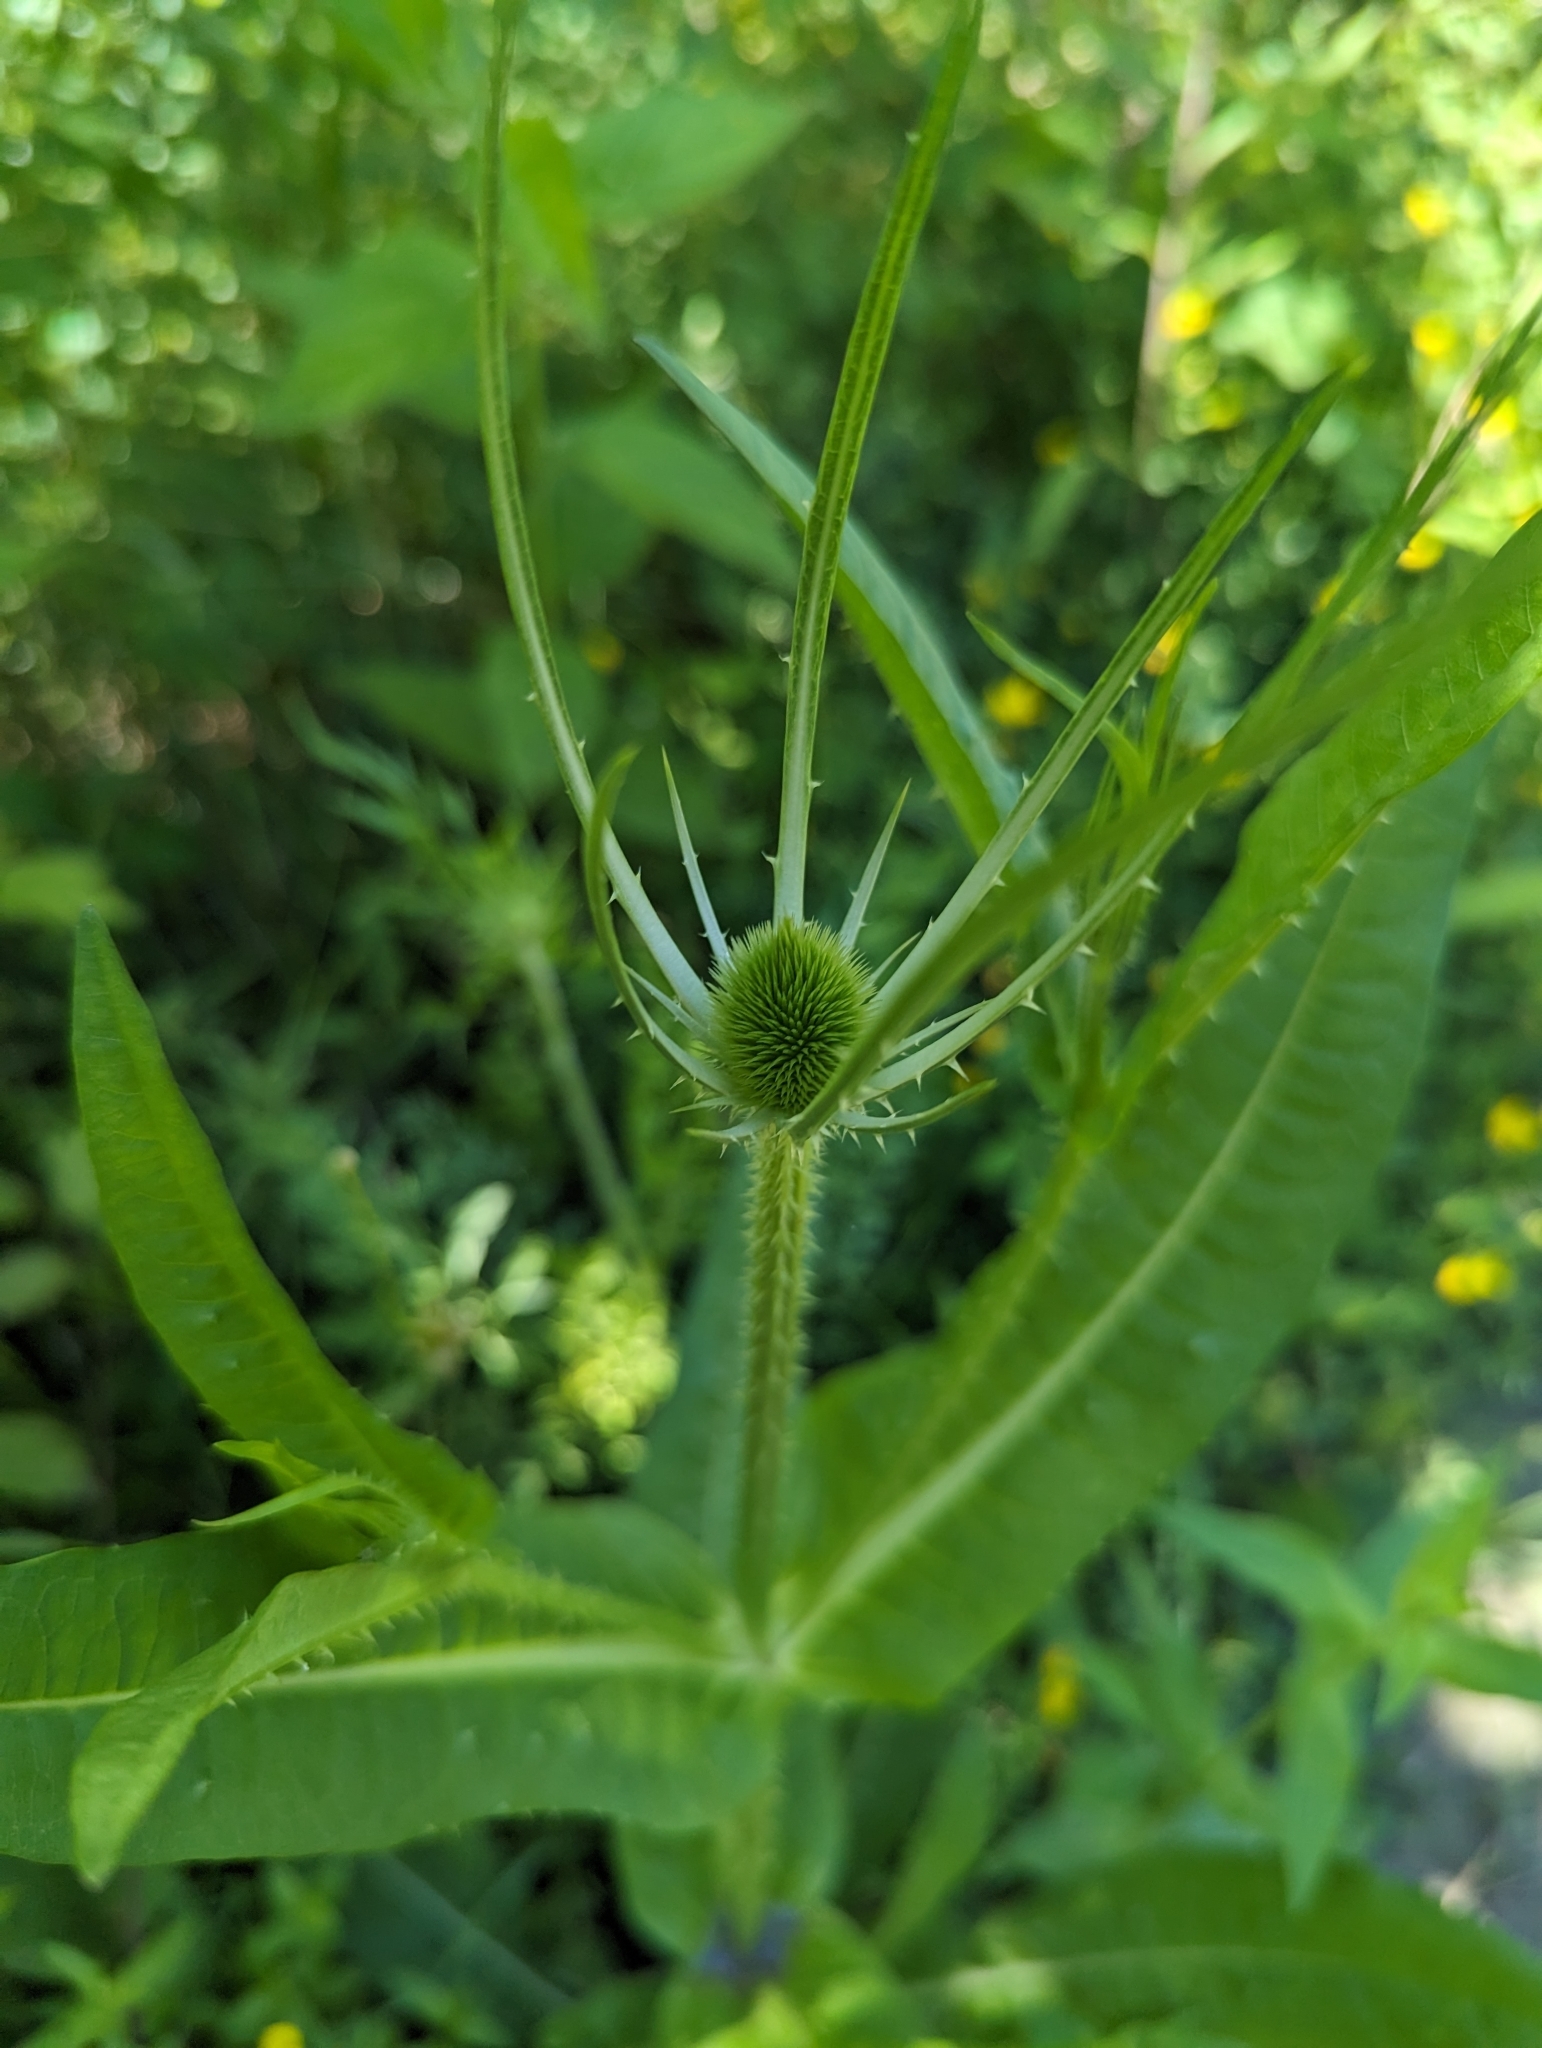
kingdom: Plantae
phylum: Tracheophyta
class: Magnoliopsida
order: Dipsacales
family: Caprifoliaceae
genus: Dipsacus
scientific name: Dipsacus fullonum
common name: Teasel
